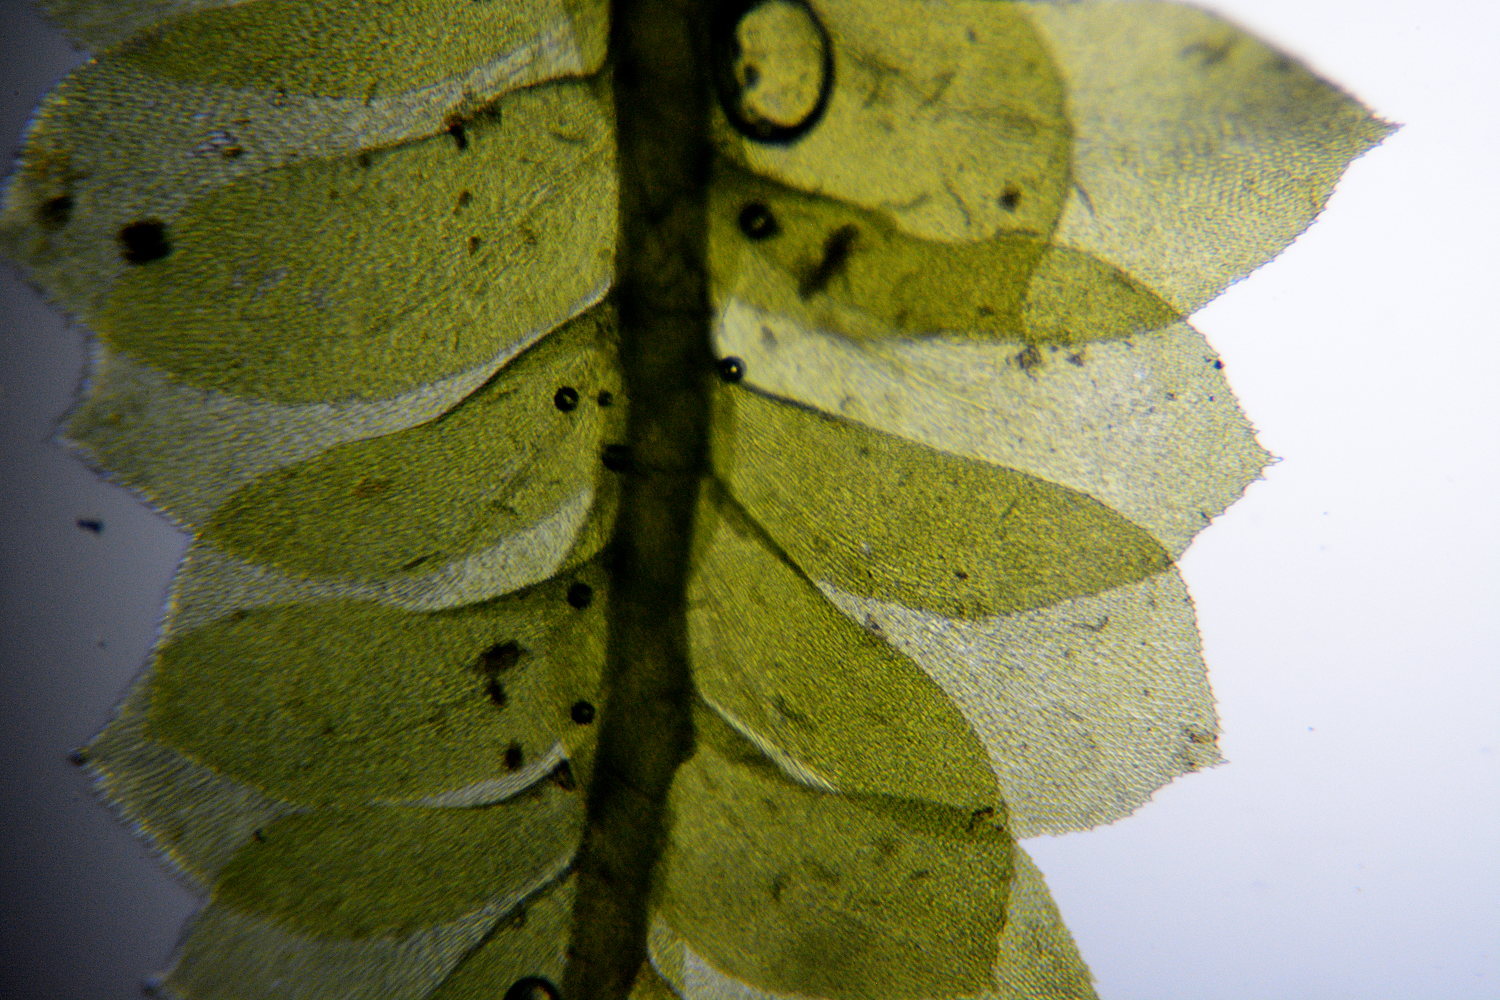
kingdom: Plantae
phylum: Bryophyta
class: Bryopsida
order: Hypnales
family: Neckeraceae
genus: Homalia
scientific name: Homalia trichomanoides
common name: Lime homalia moss
